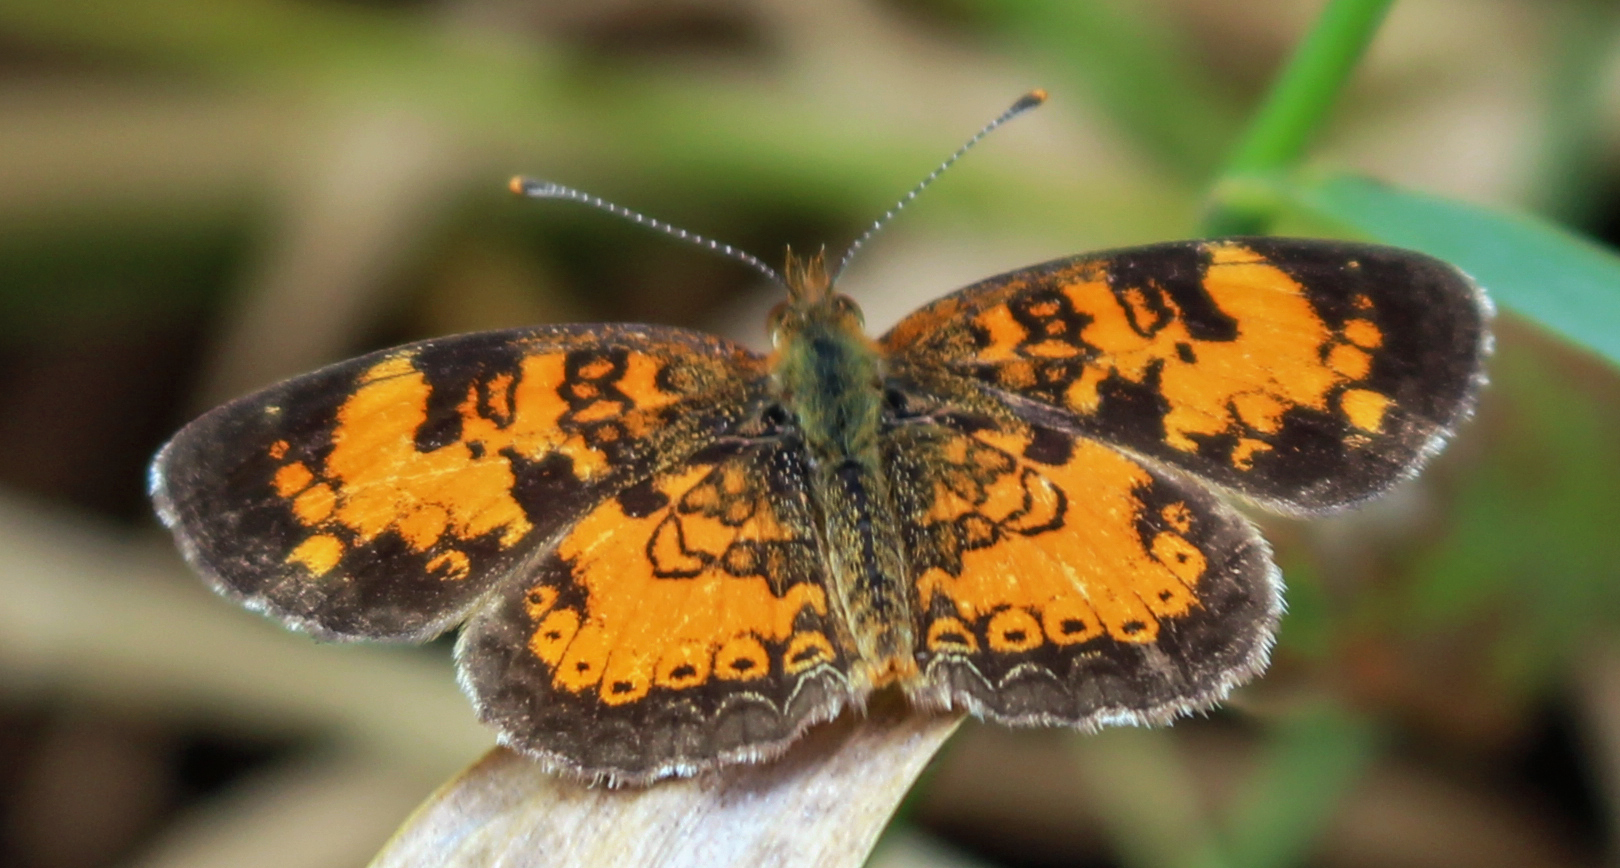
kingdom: Animalia
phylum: Arthropoda
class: Insecta
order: Lepidoptera
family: Nymphalidae
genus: Phyciodes
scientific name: Phyciodes tharos
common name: Pearl crescent
